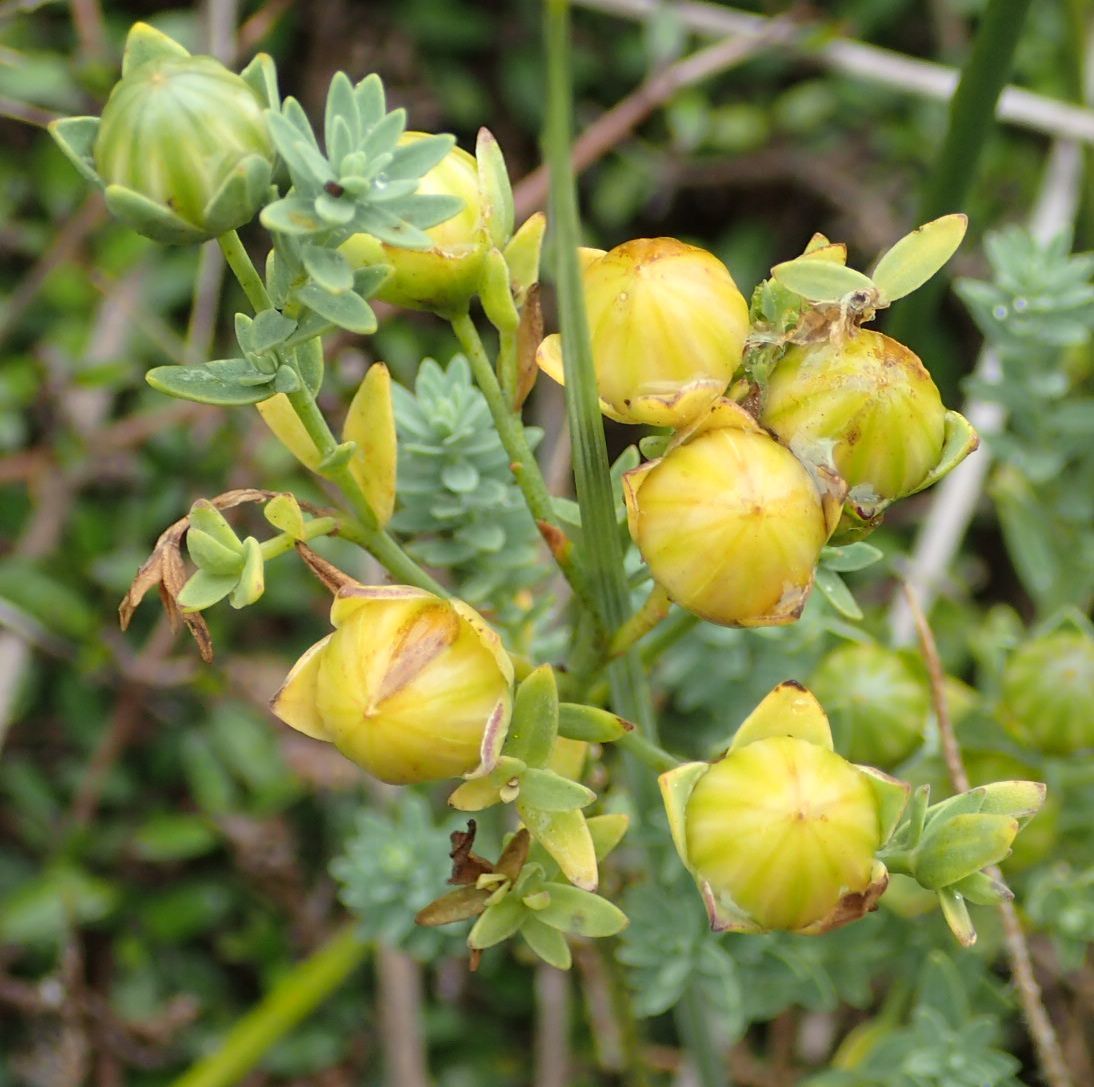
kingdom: Plantae
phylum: Tracheophyta
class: Magnoliopsida
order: Malpighiales
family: Linaceae
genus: Linum
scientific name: Linum monogynum
